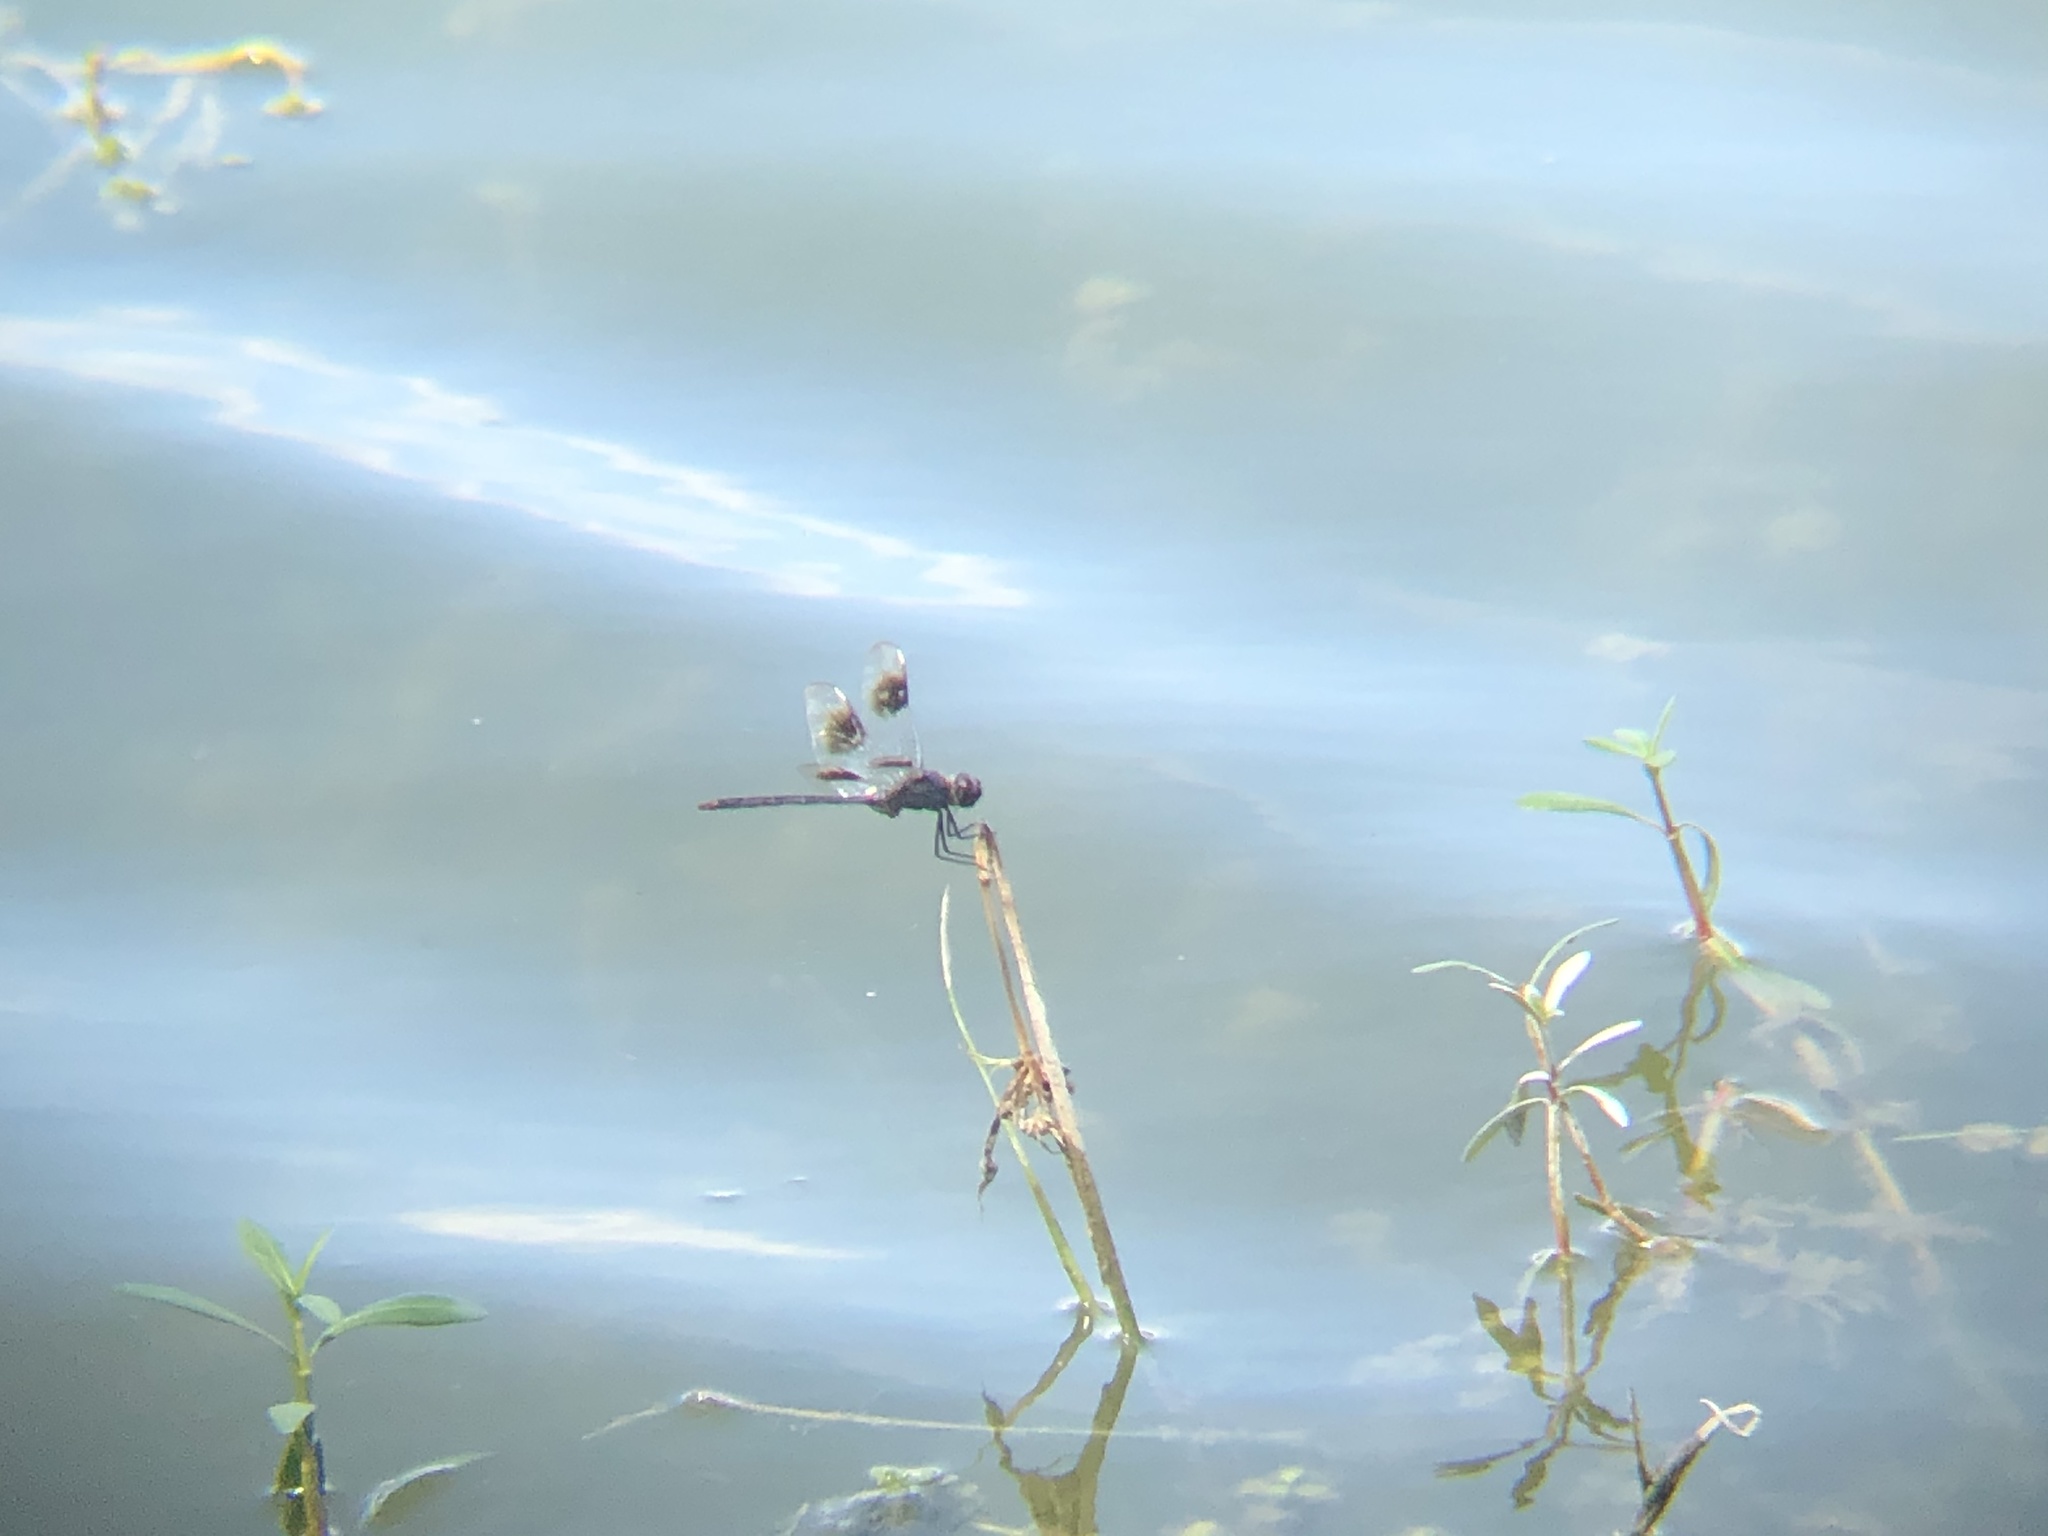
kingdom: Animalia
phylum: Arthropoda
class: Insecta
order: Odonata
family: Libellulidae
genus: Brachymesia
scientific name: Brachymesia gravida
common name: Four-spotted pennant
